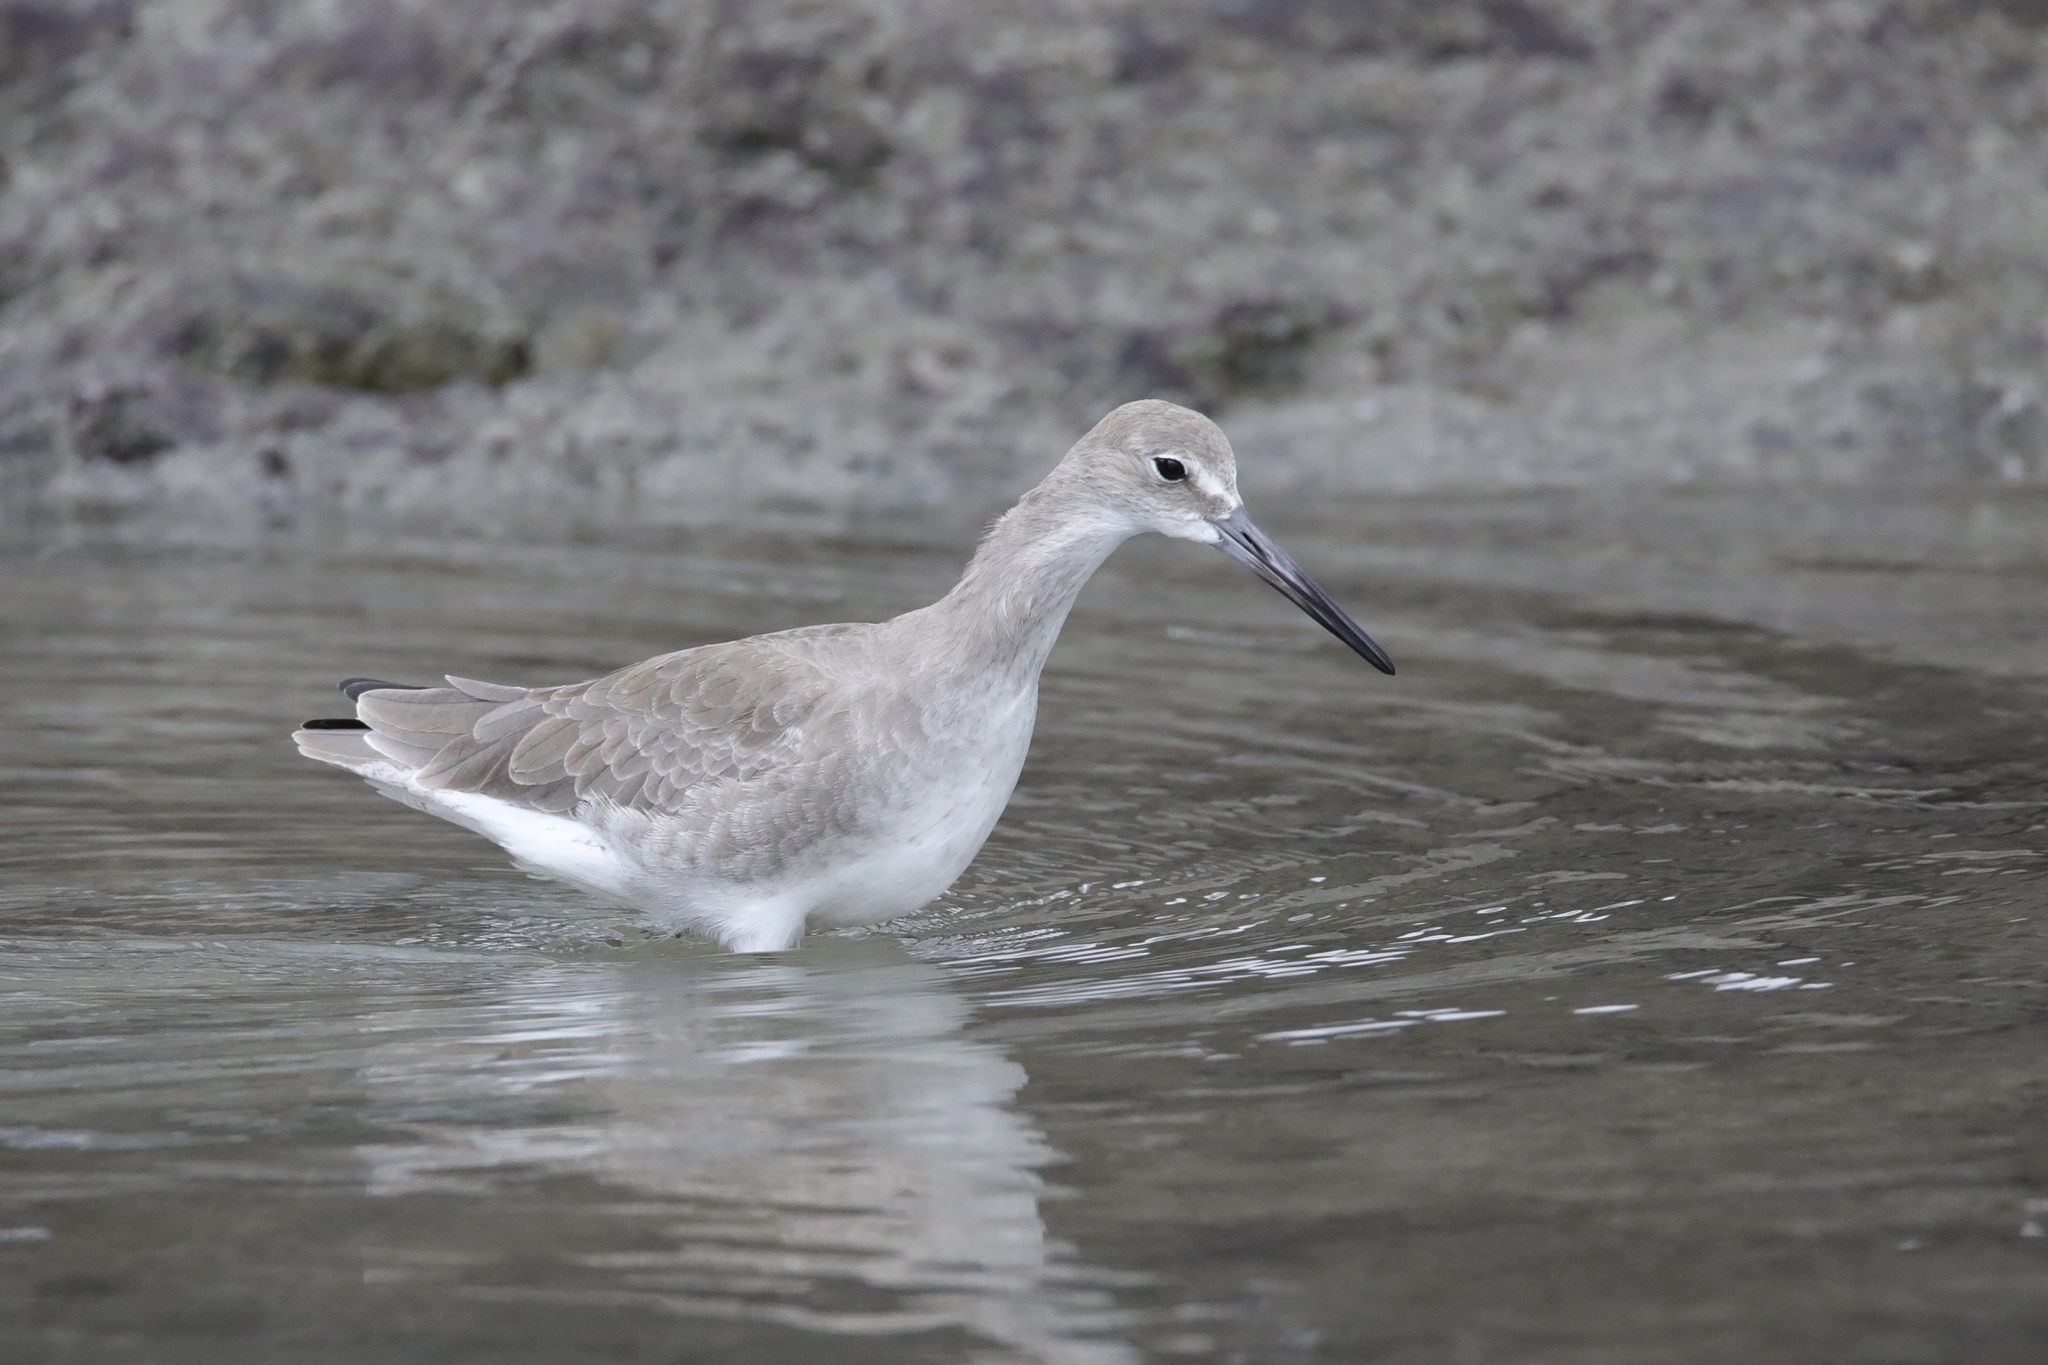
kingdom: Animalia
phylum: Chordata
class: Aves
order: Charadriiformes
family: Scolopacidae
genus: Tringa
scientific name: Tringa semipalmata
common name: Willet
